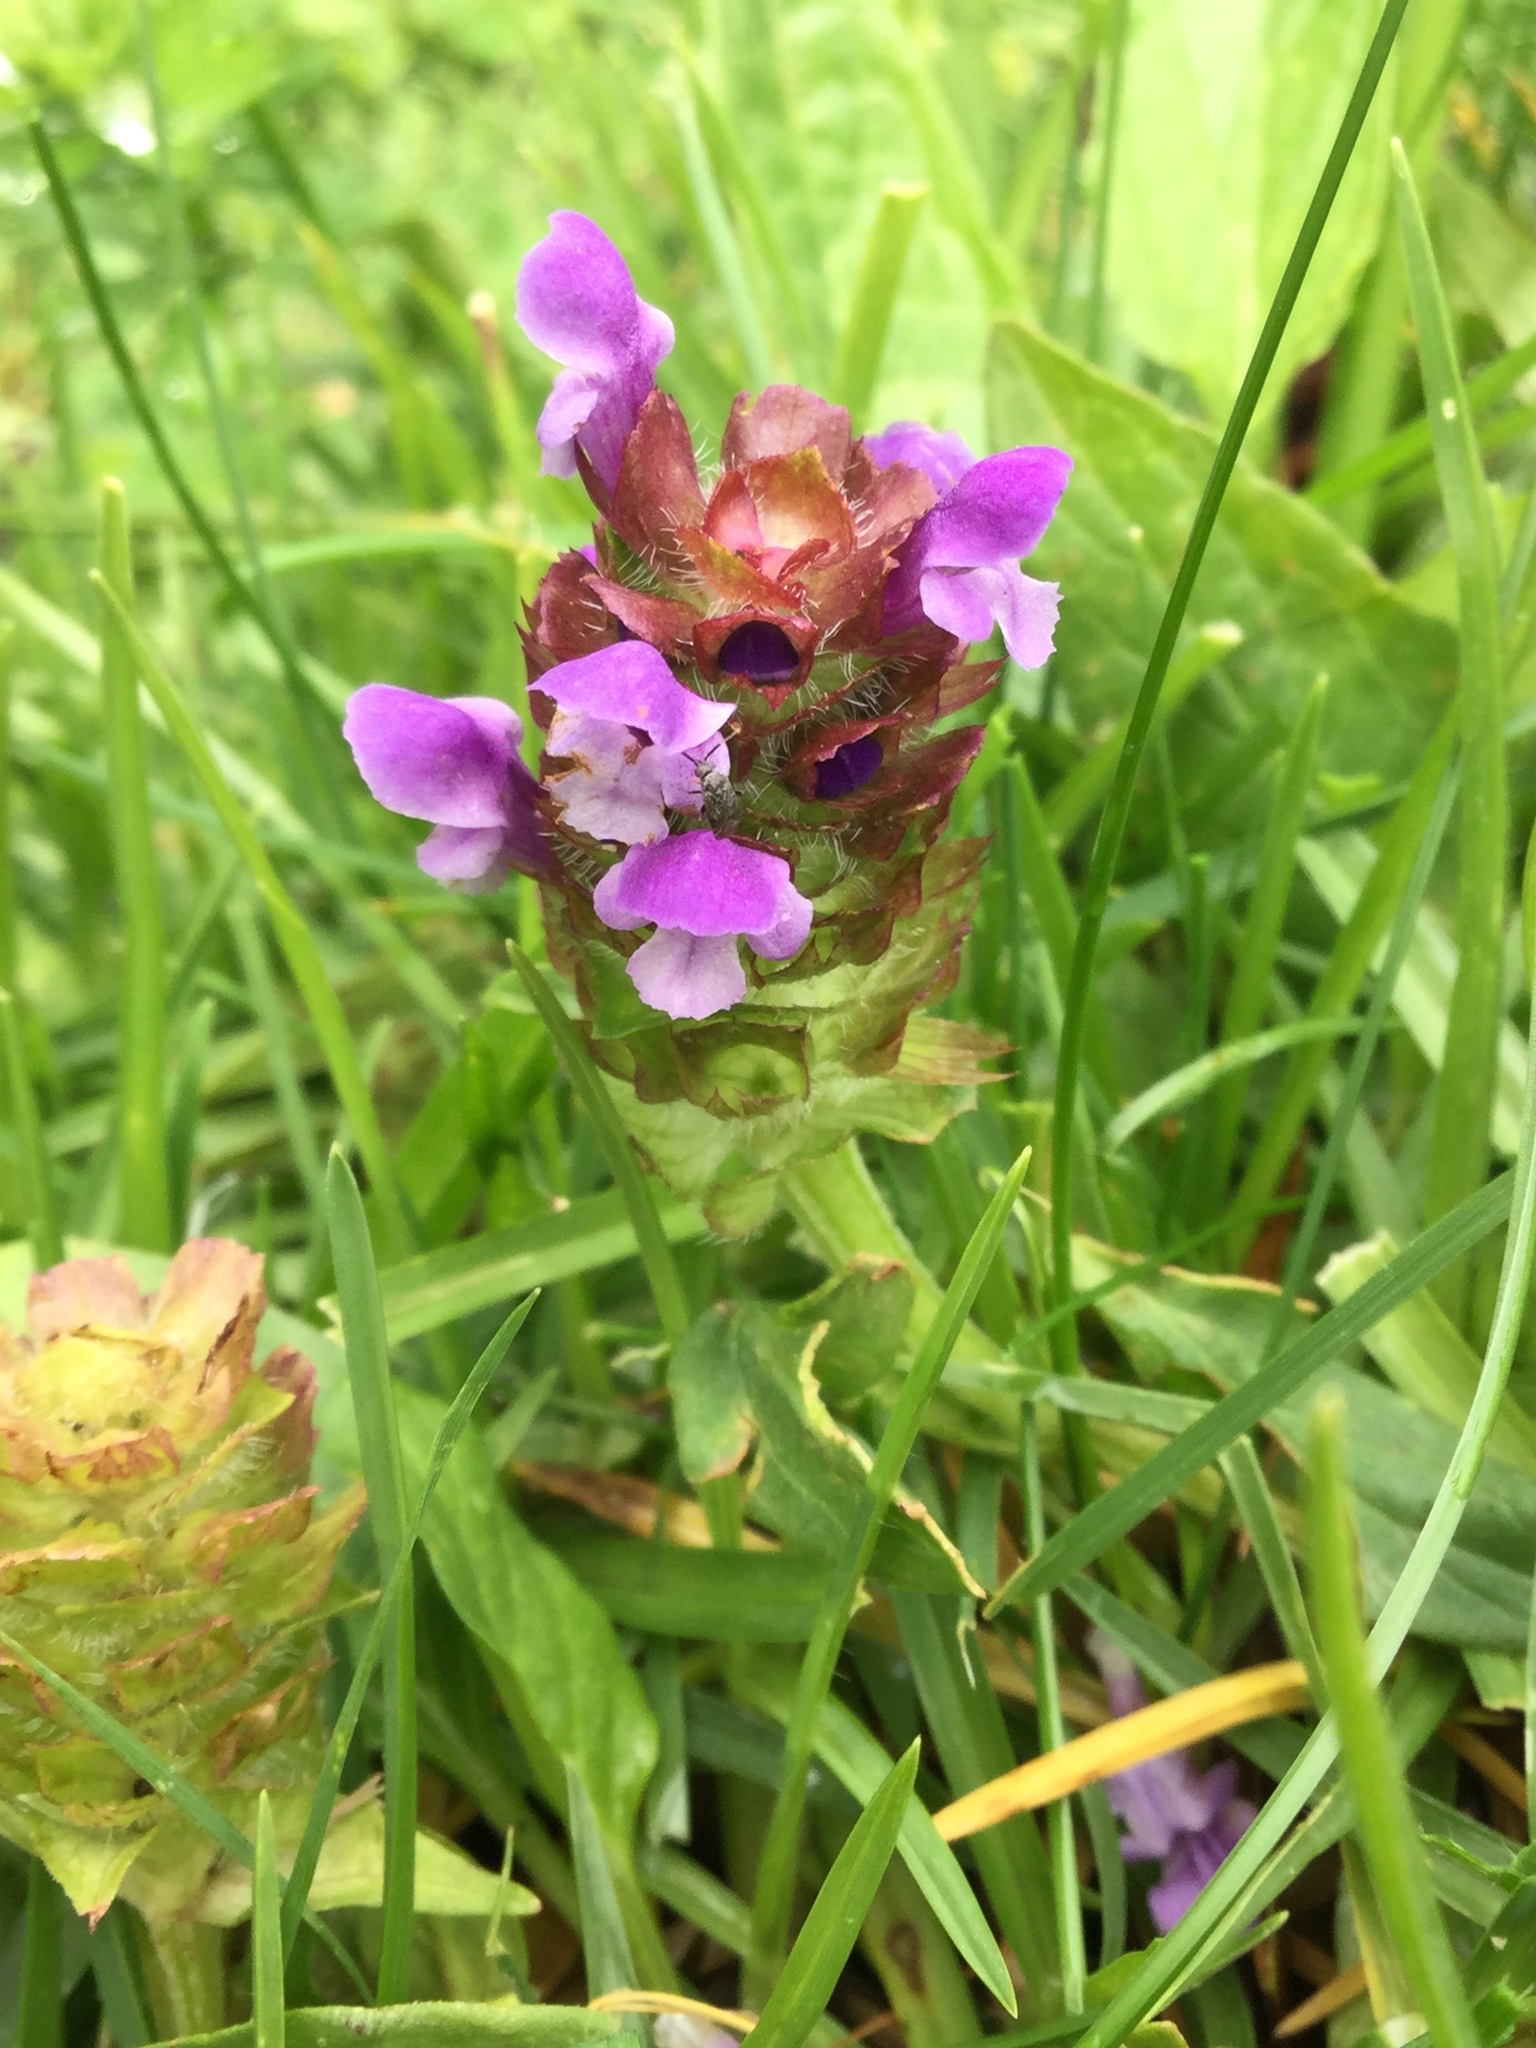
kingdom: Plantae
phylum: Tracheophyta
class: Magnoliopsida
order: Lamiales
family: Lamiaceae
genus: Prunella
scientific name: Prunella vulgaris
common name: Heal-all
